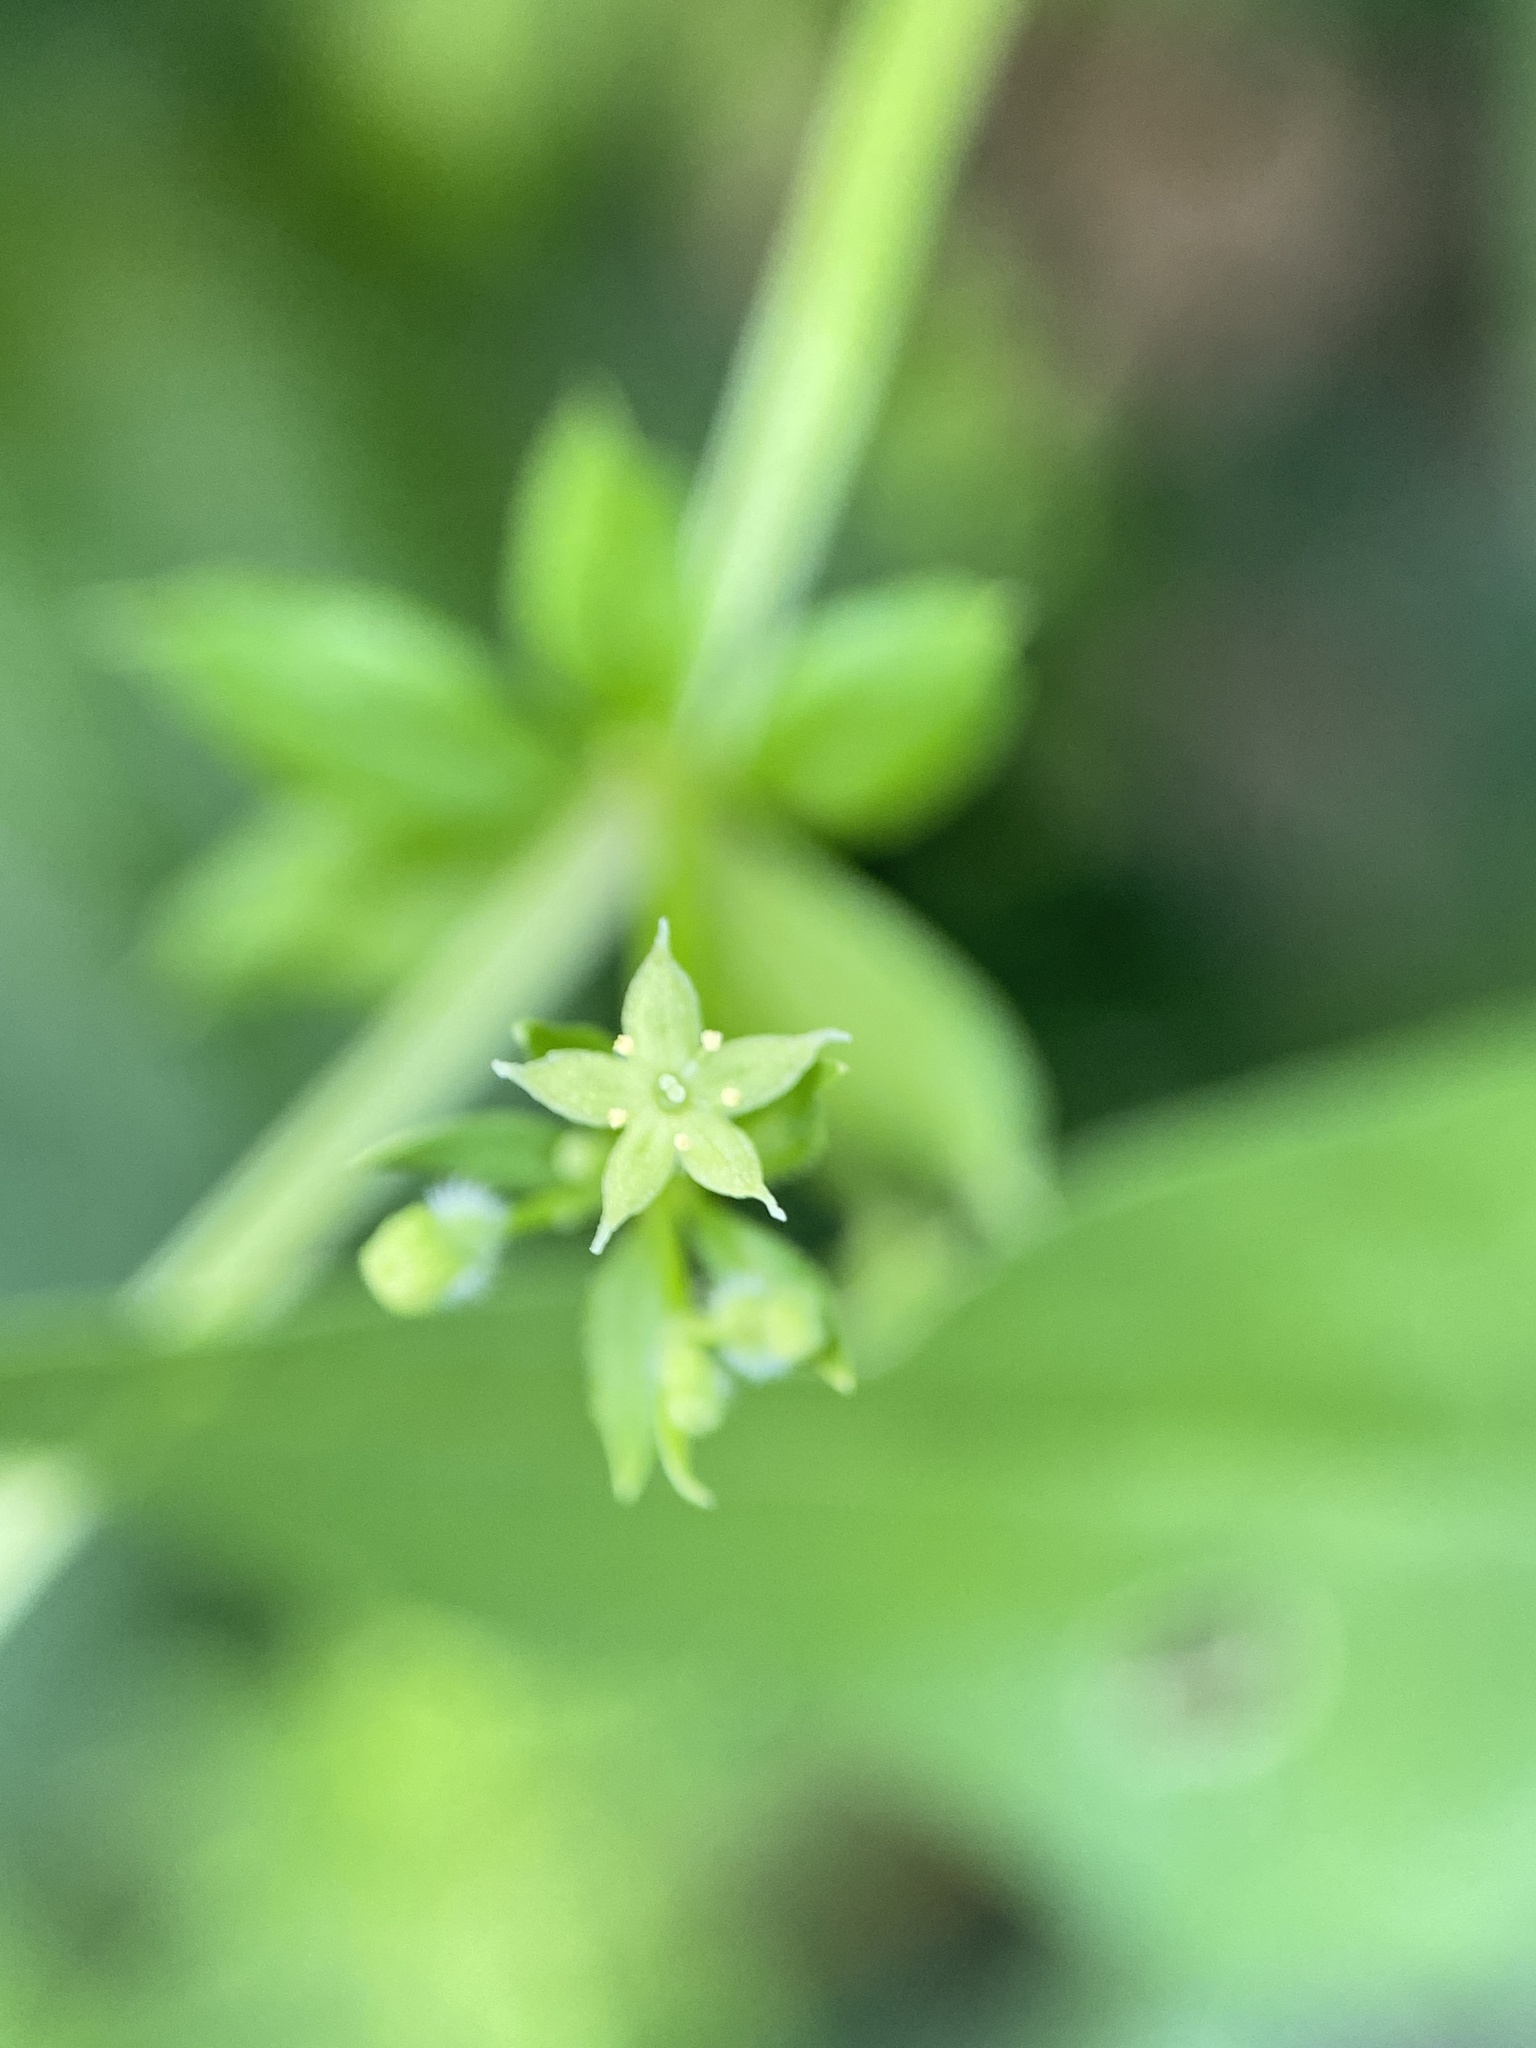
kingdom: Plantae
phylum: Tracheophyta
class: Magnoliopsida
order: Gentianales
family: Rubiaceae
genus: Galium
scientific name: Galium triflorum
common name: Fragrant bedstraw
